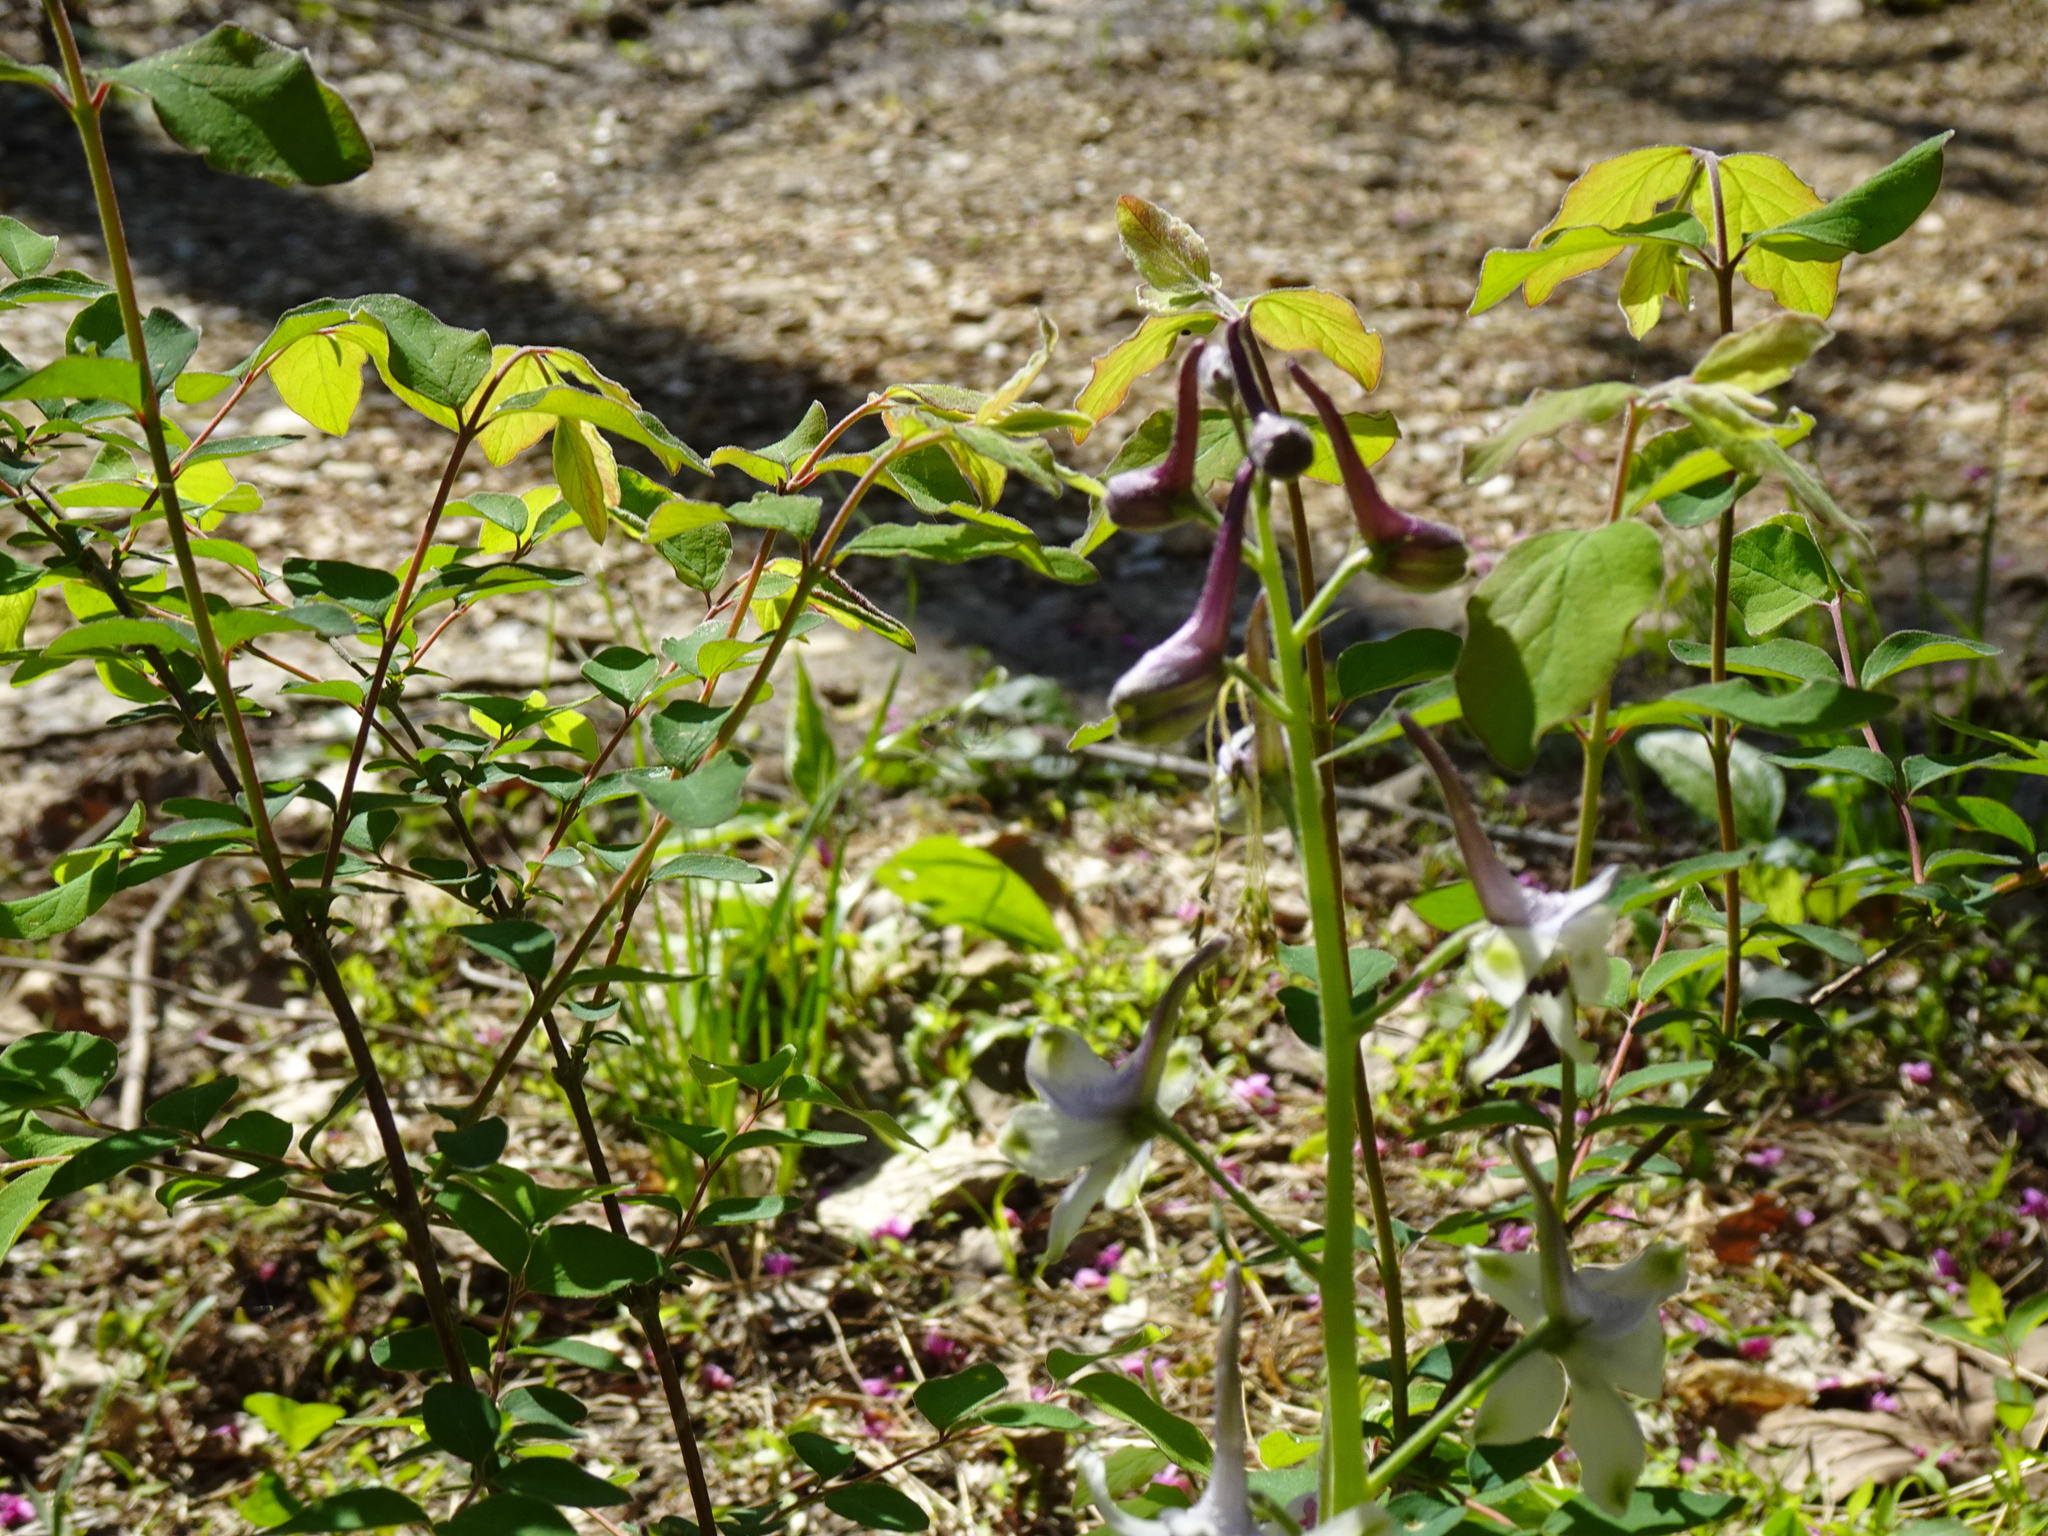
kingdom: Plantae
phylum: Tracheophyta
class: Magnoliopsida
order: Ranunculales
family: Ranunculaceae
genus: Delphinium
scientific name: Delphinium tricorne
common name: Dwarf larkspur
